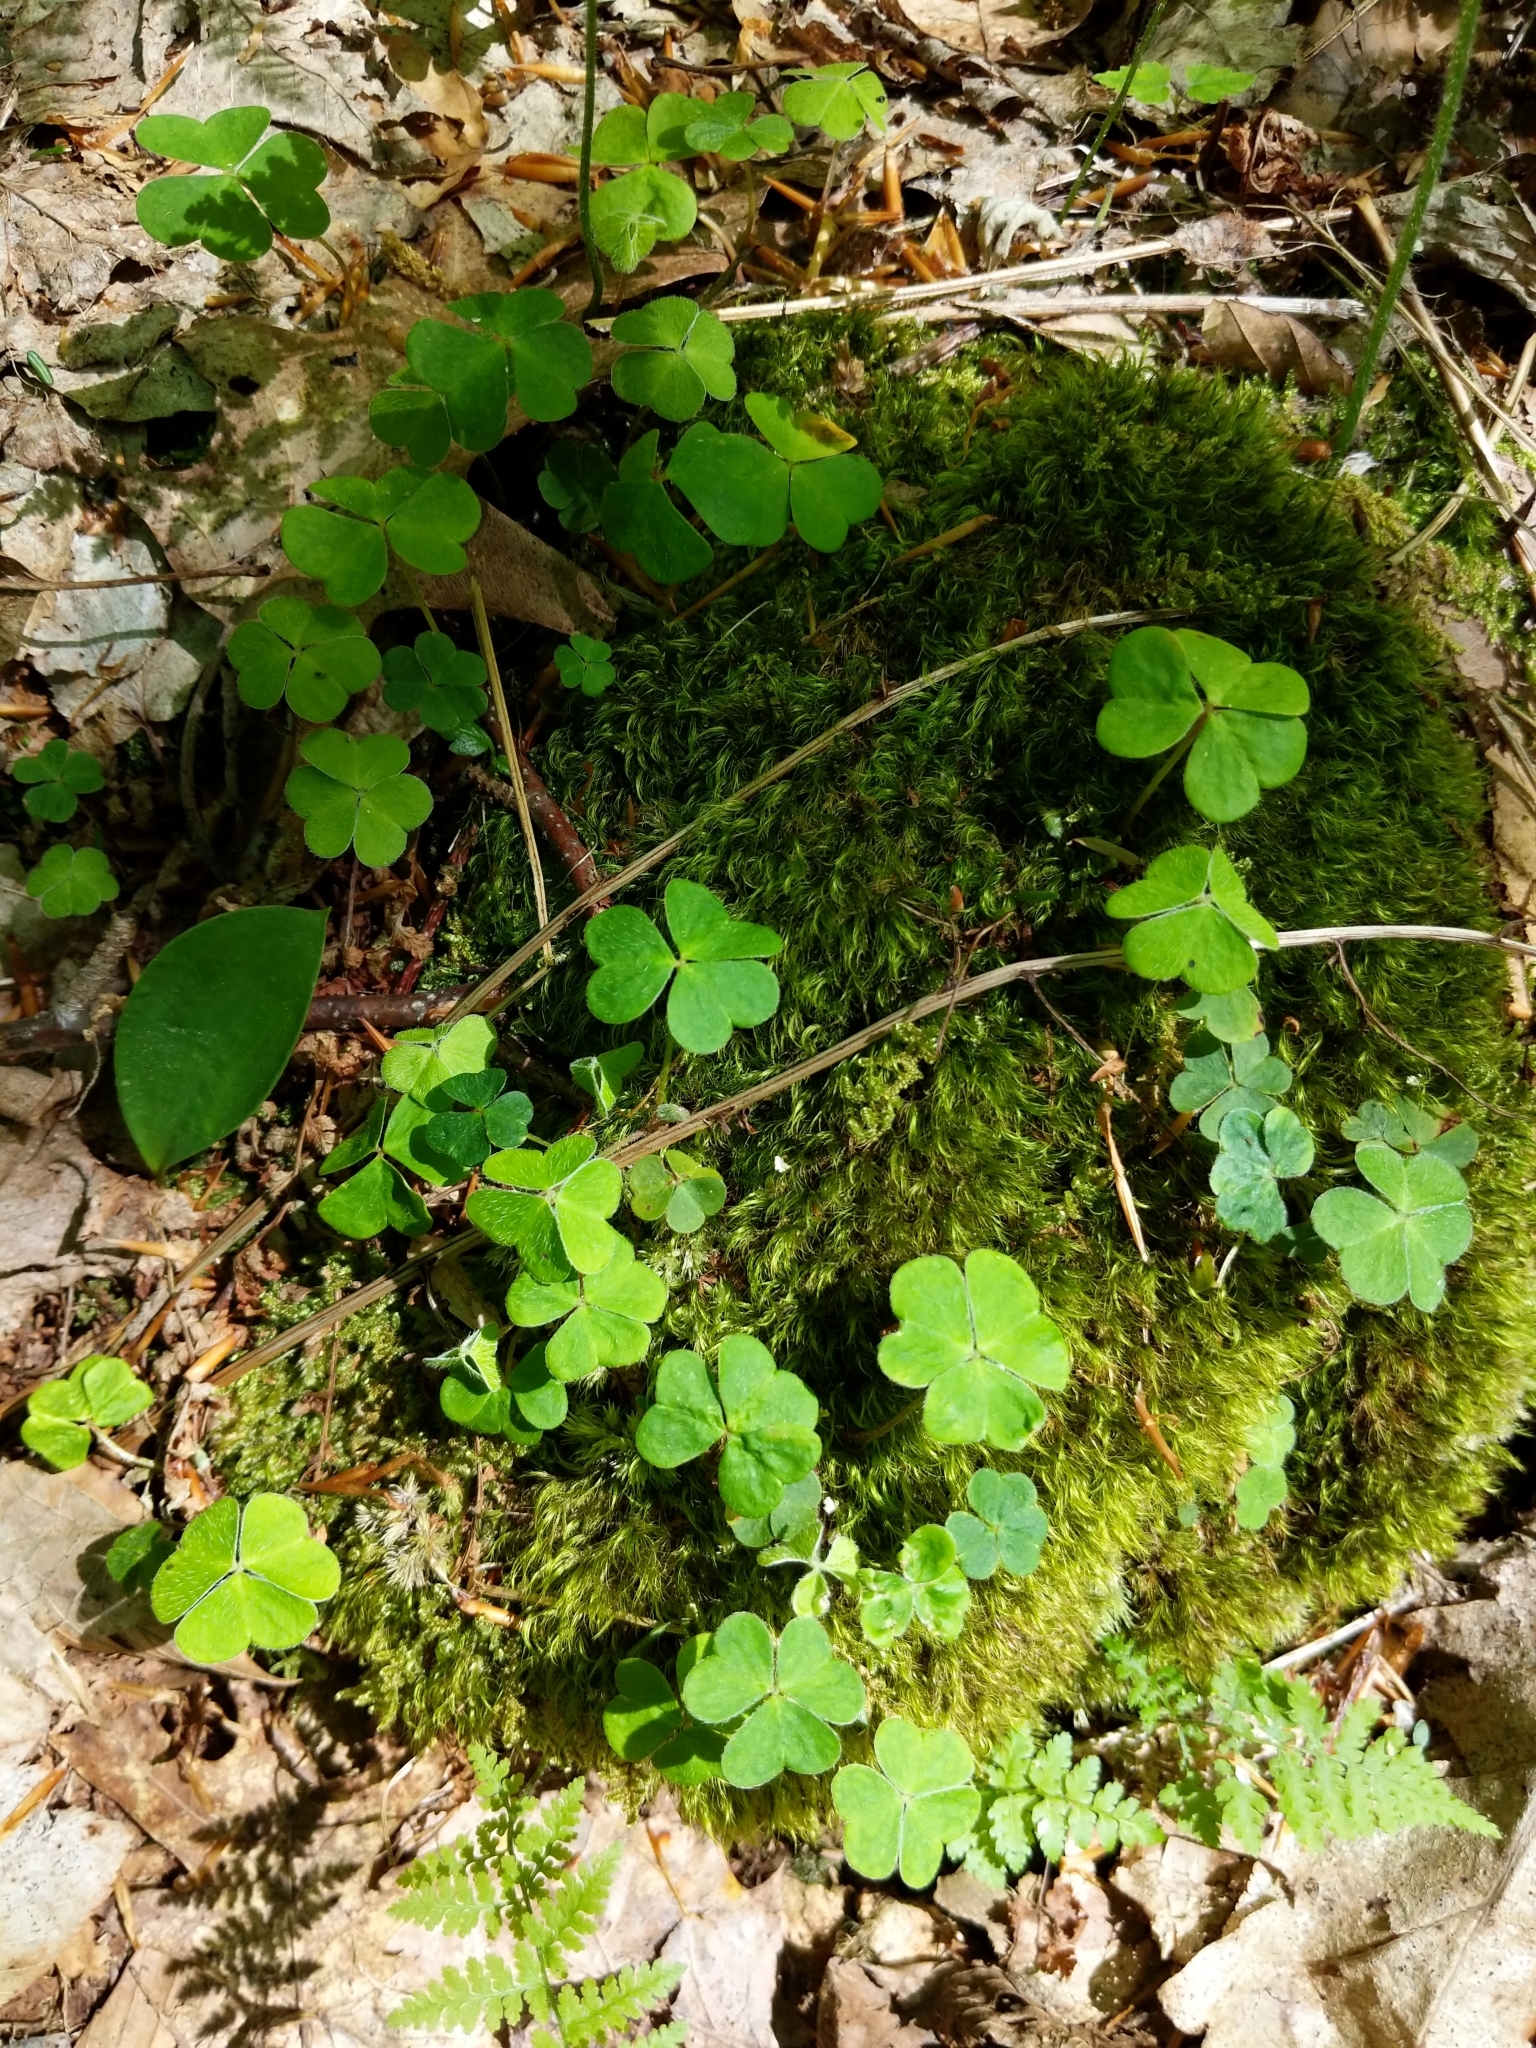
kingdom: Plantae
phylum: Tracheophyta
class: Magnoliopsida
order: Oxalidales
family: Oxalidaceae
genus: Oxalis
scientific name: Oxalis montana
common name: American wood-sorrel
